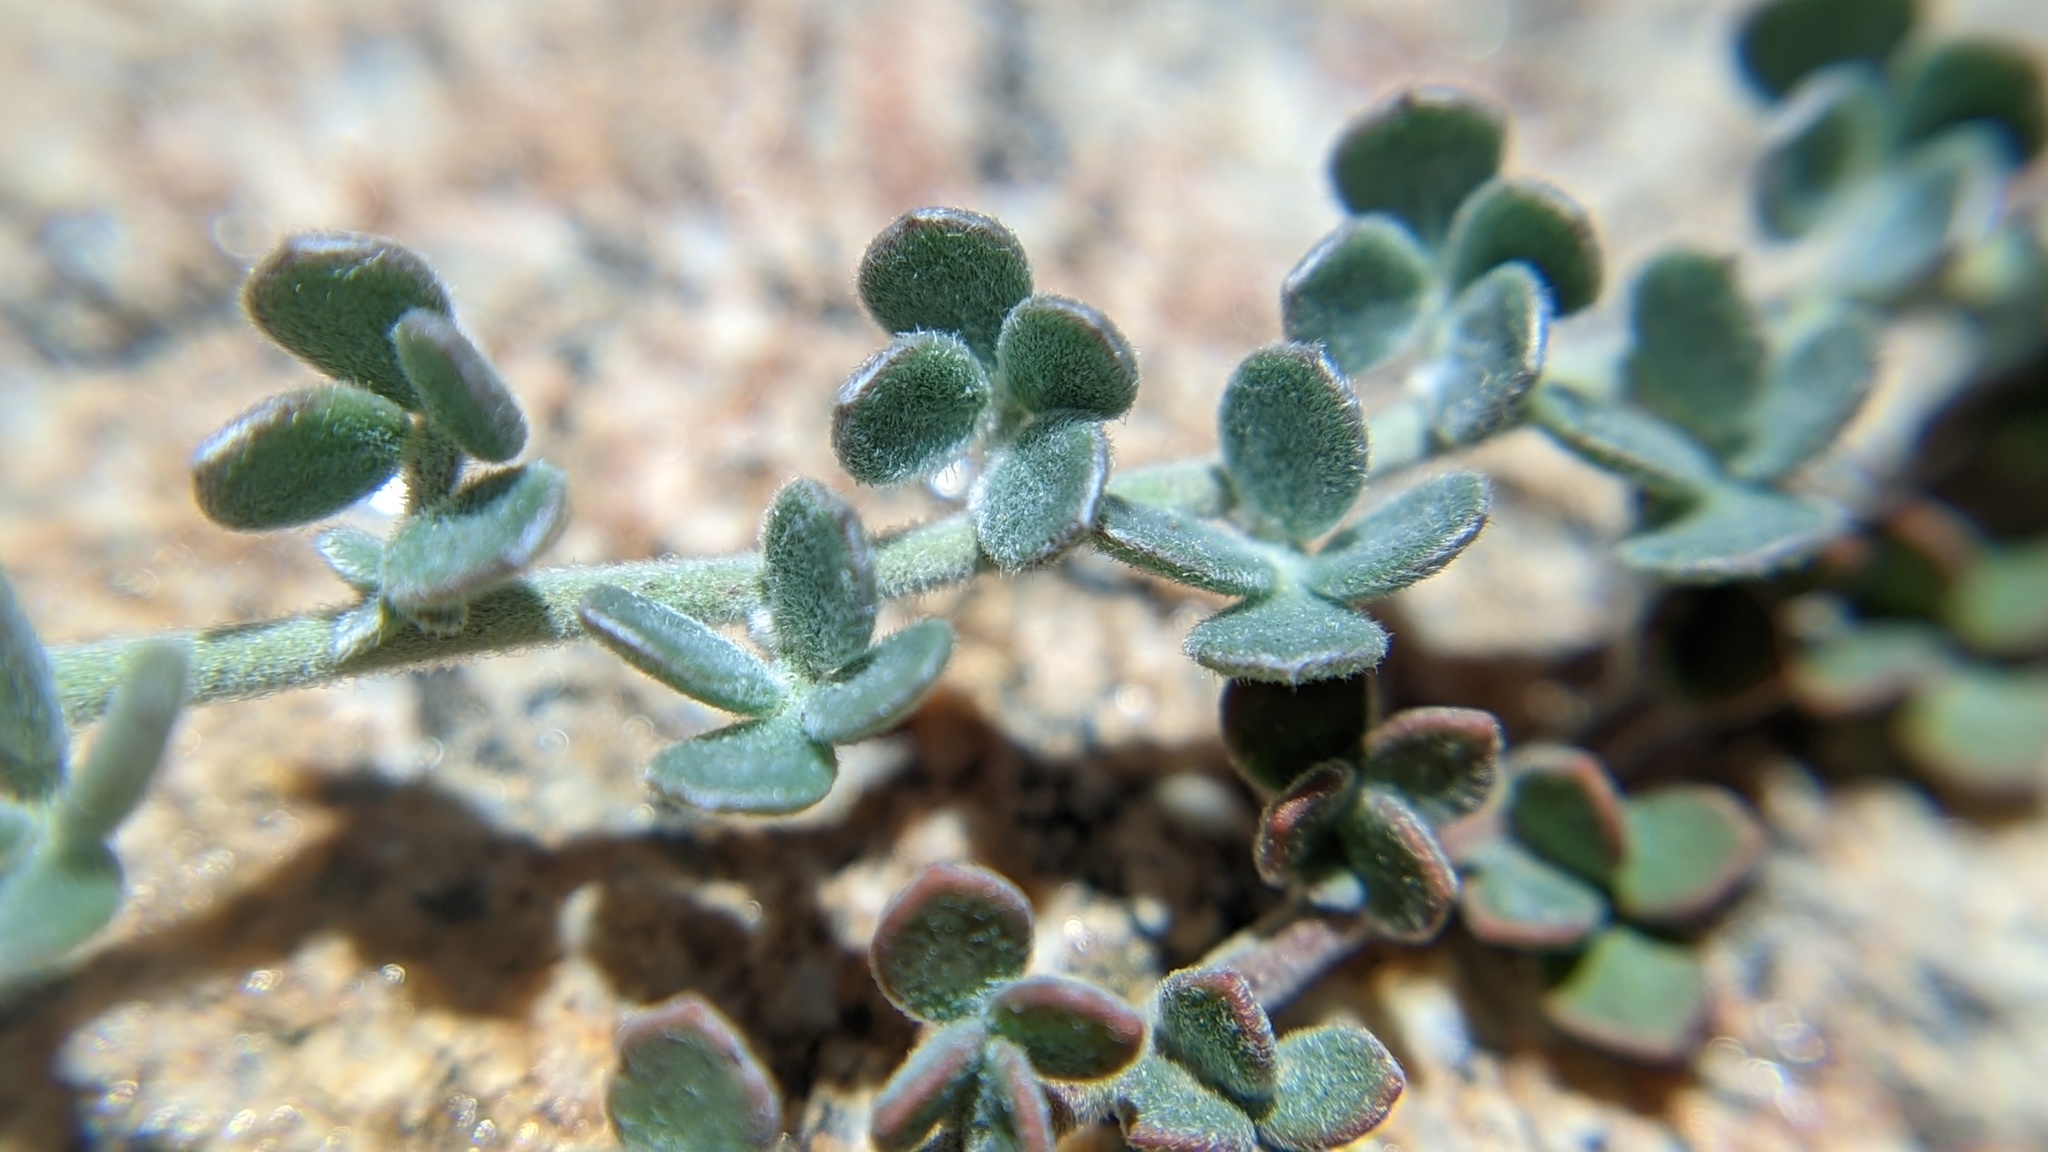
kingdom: Plantae
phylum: Tracheophyta
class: Magnoliopsida
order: Fabales
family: Fabaceae
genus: Acmispon
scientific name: Acmispon argophyllus
